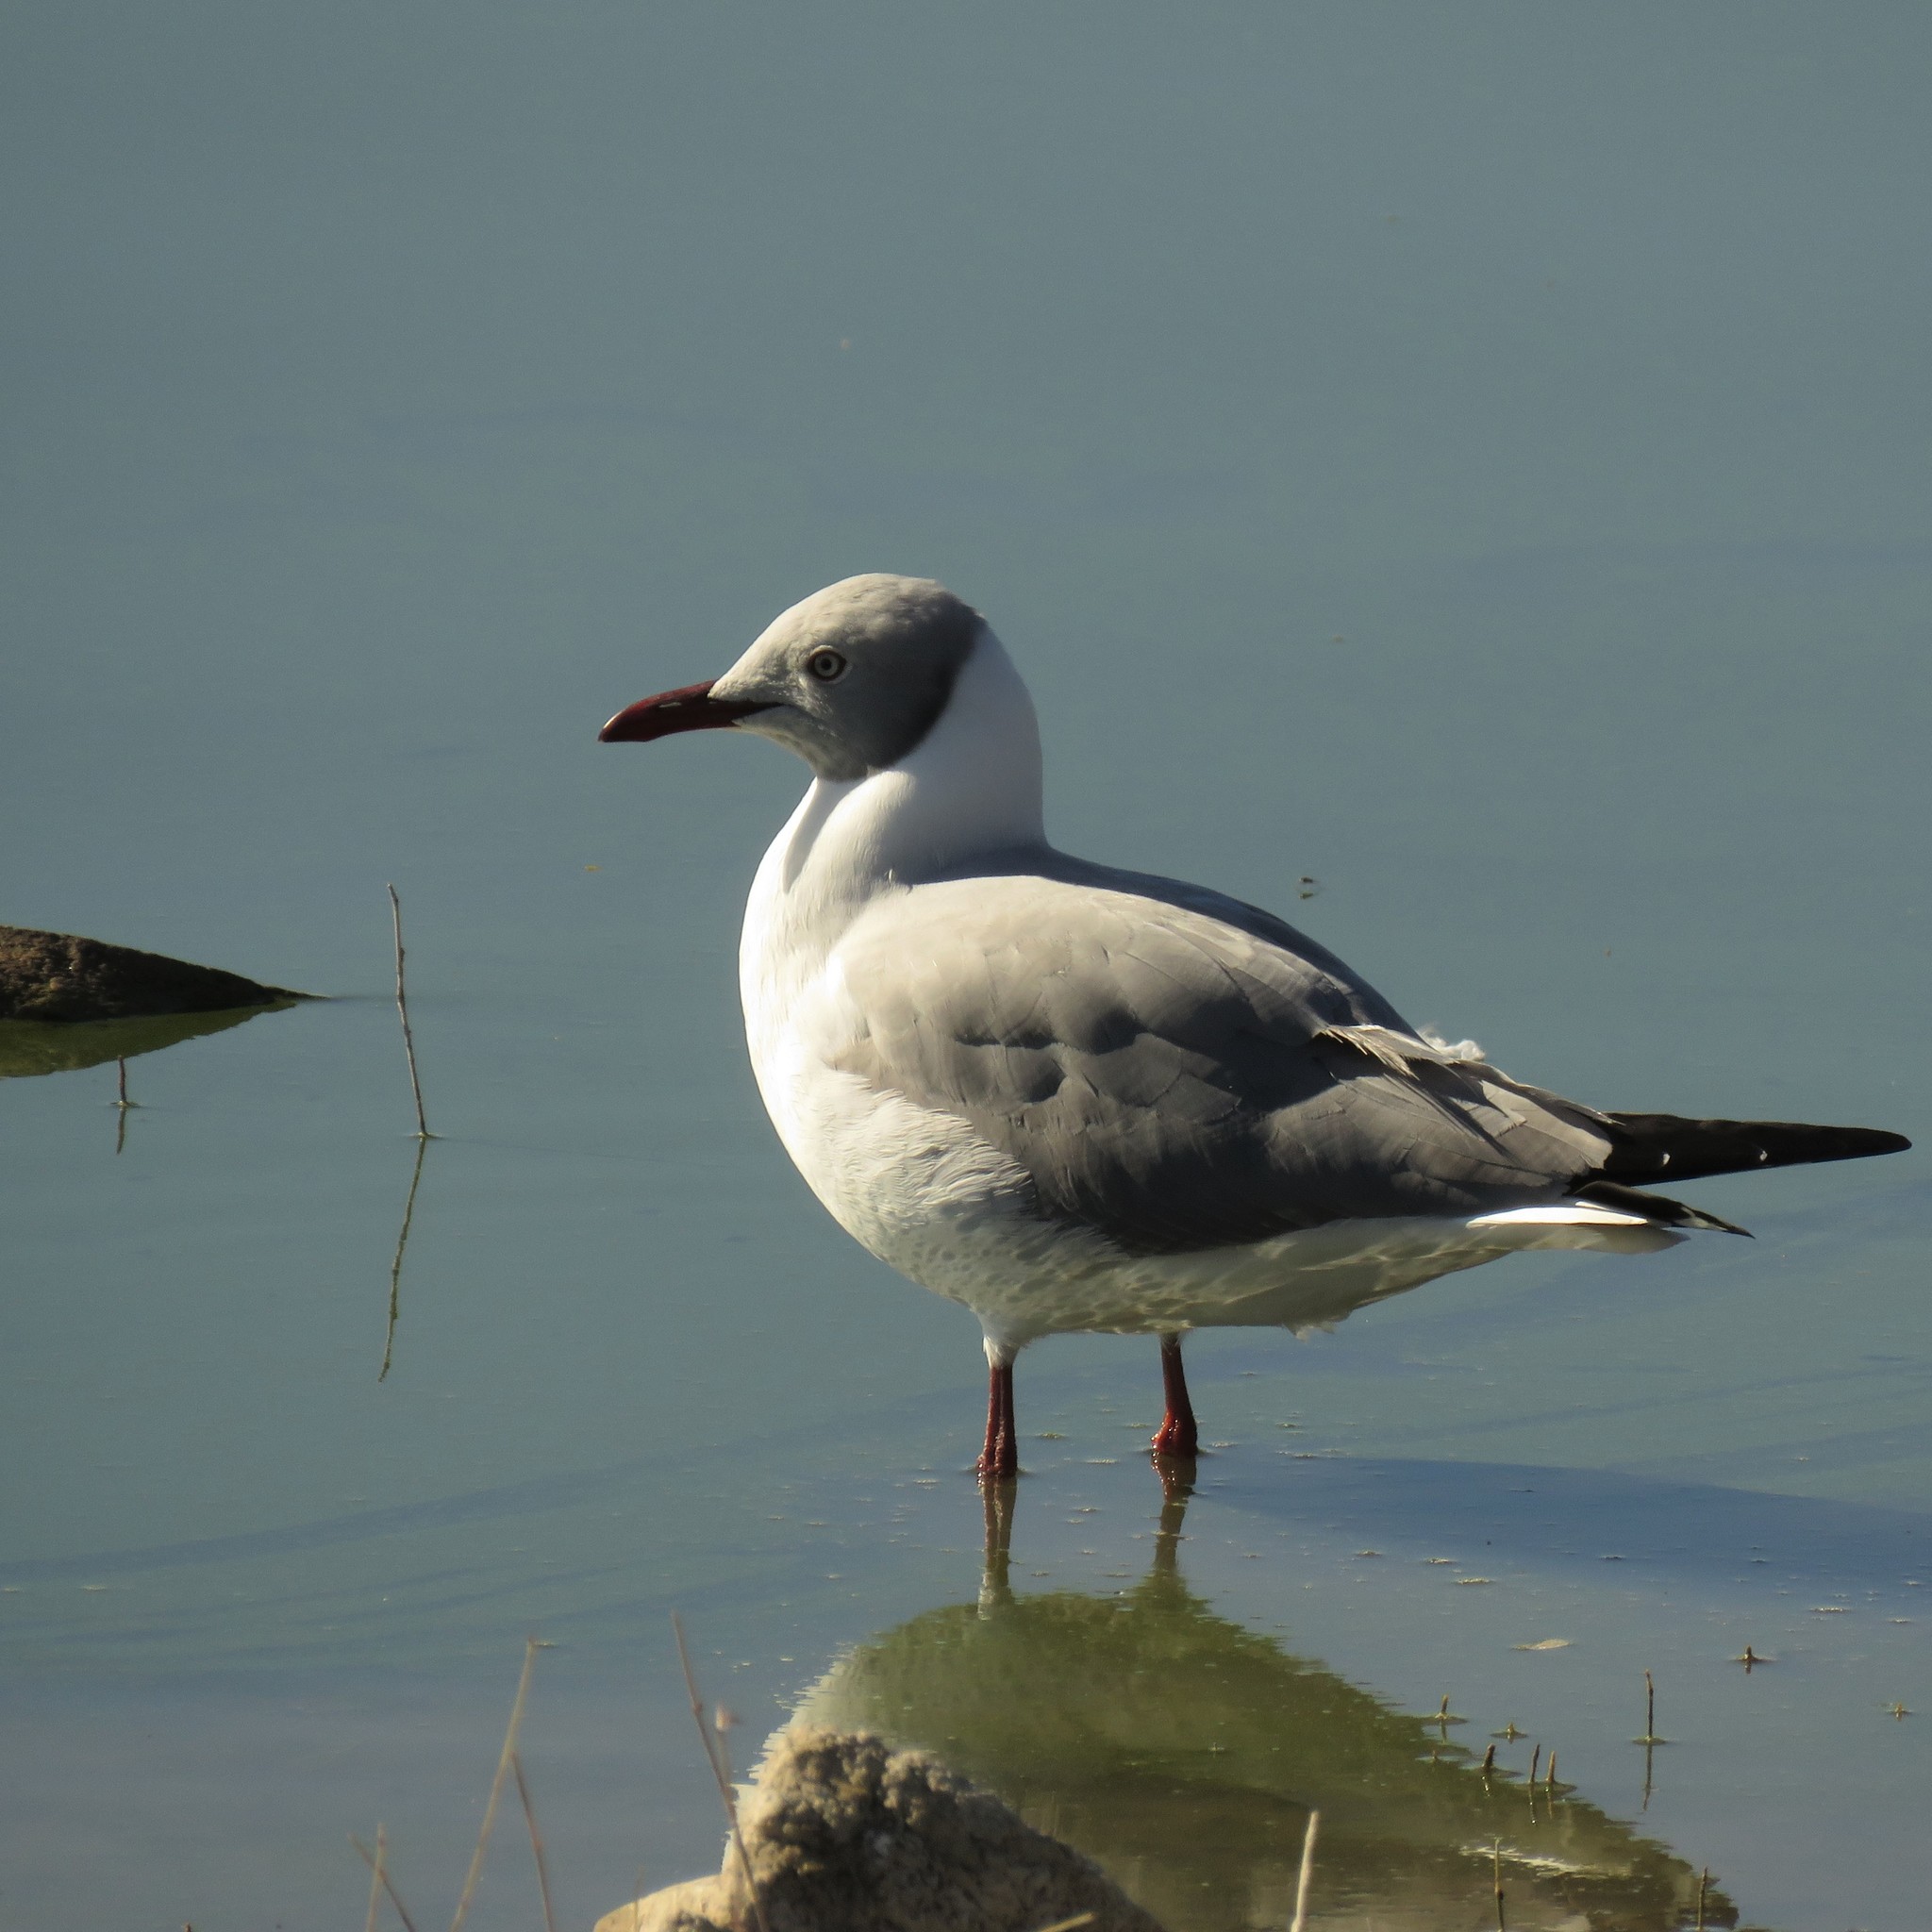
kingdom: Animalia
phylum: Chordata
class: Aves
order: Charadriiformes
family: Laridae
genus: Chroicocephalus
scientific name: Chroicocephalus cirrocephalus
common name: Grey-headed gull
